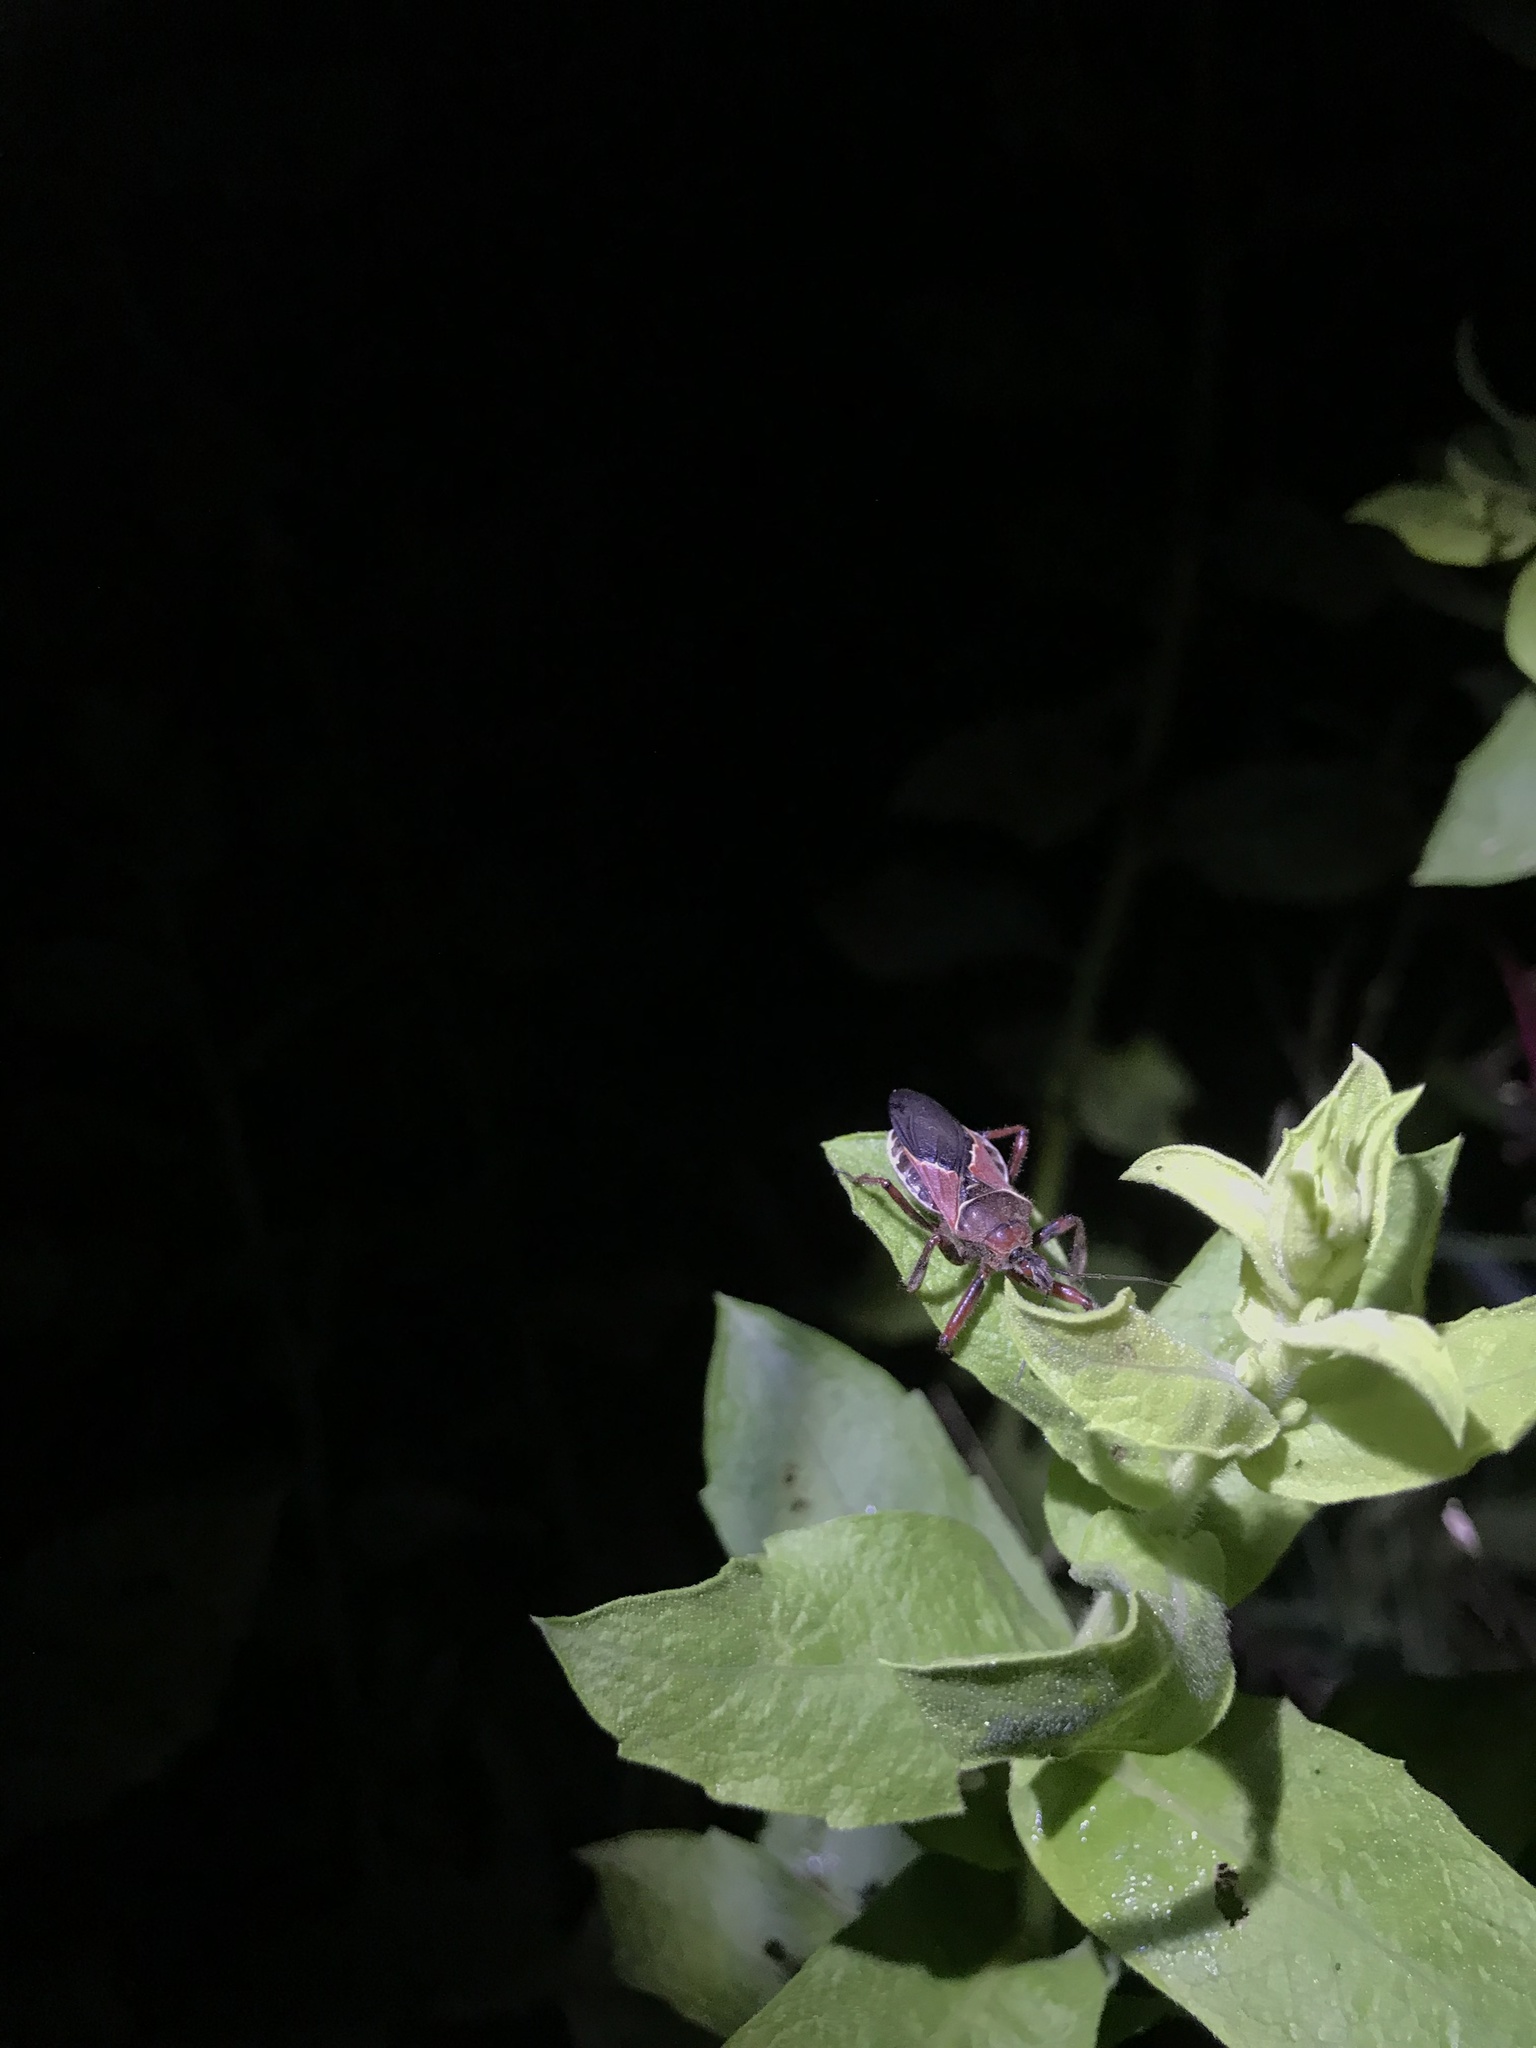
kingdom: Animalia
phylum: Arthropoda
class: Insecta
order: Hemiptera
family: Reduviidae
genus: Apiomerus
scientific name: Apiomerus spissipes
